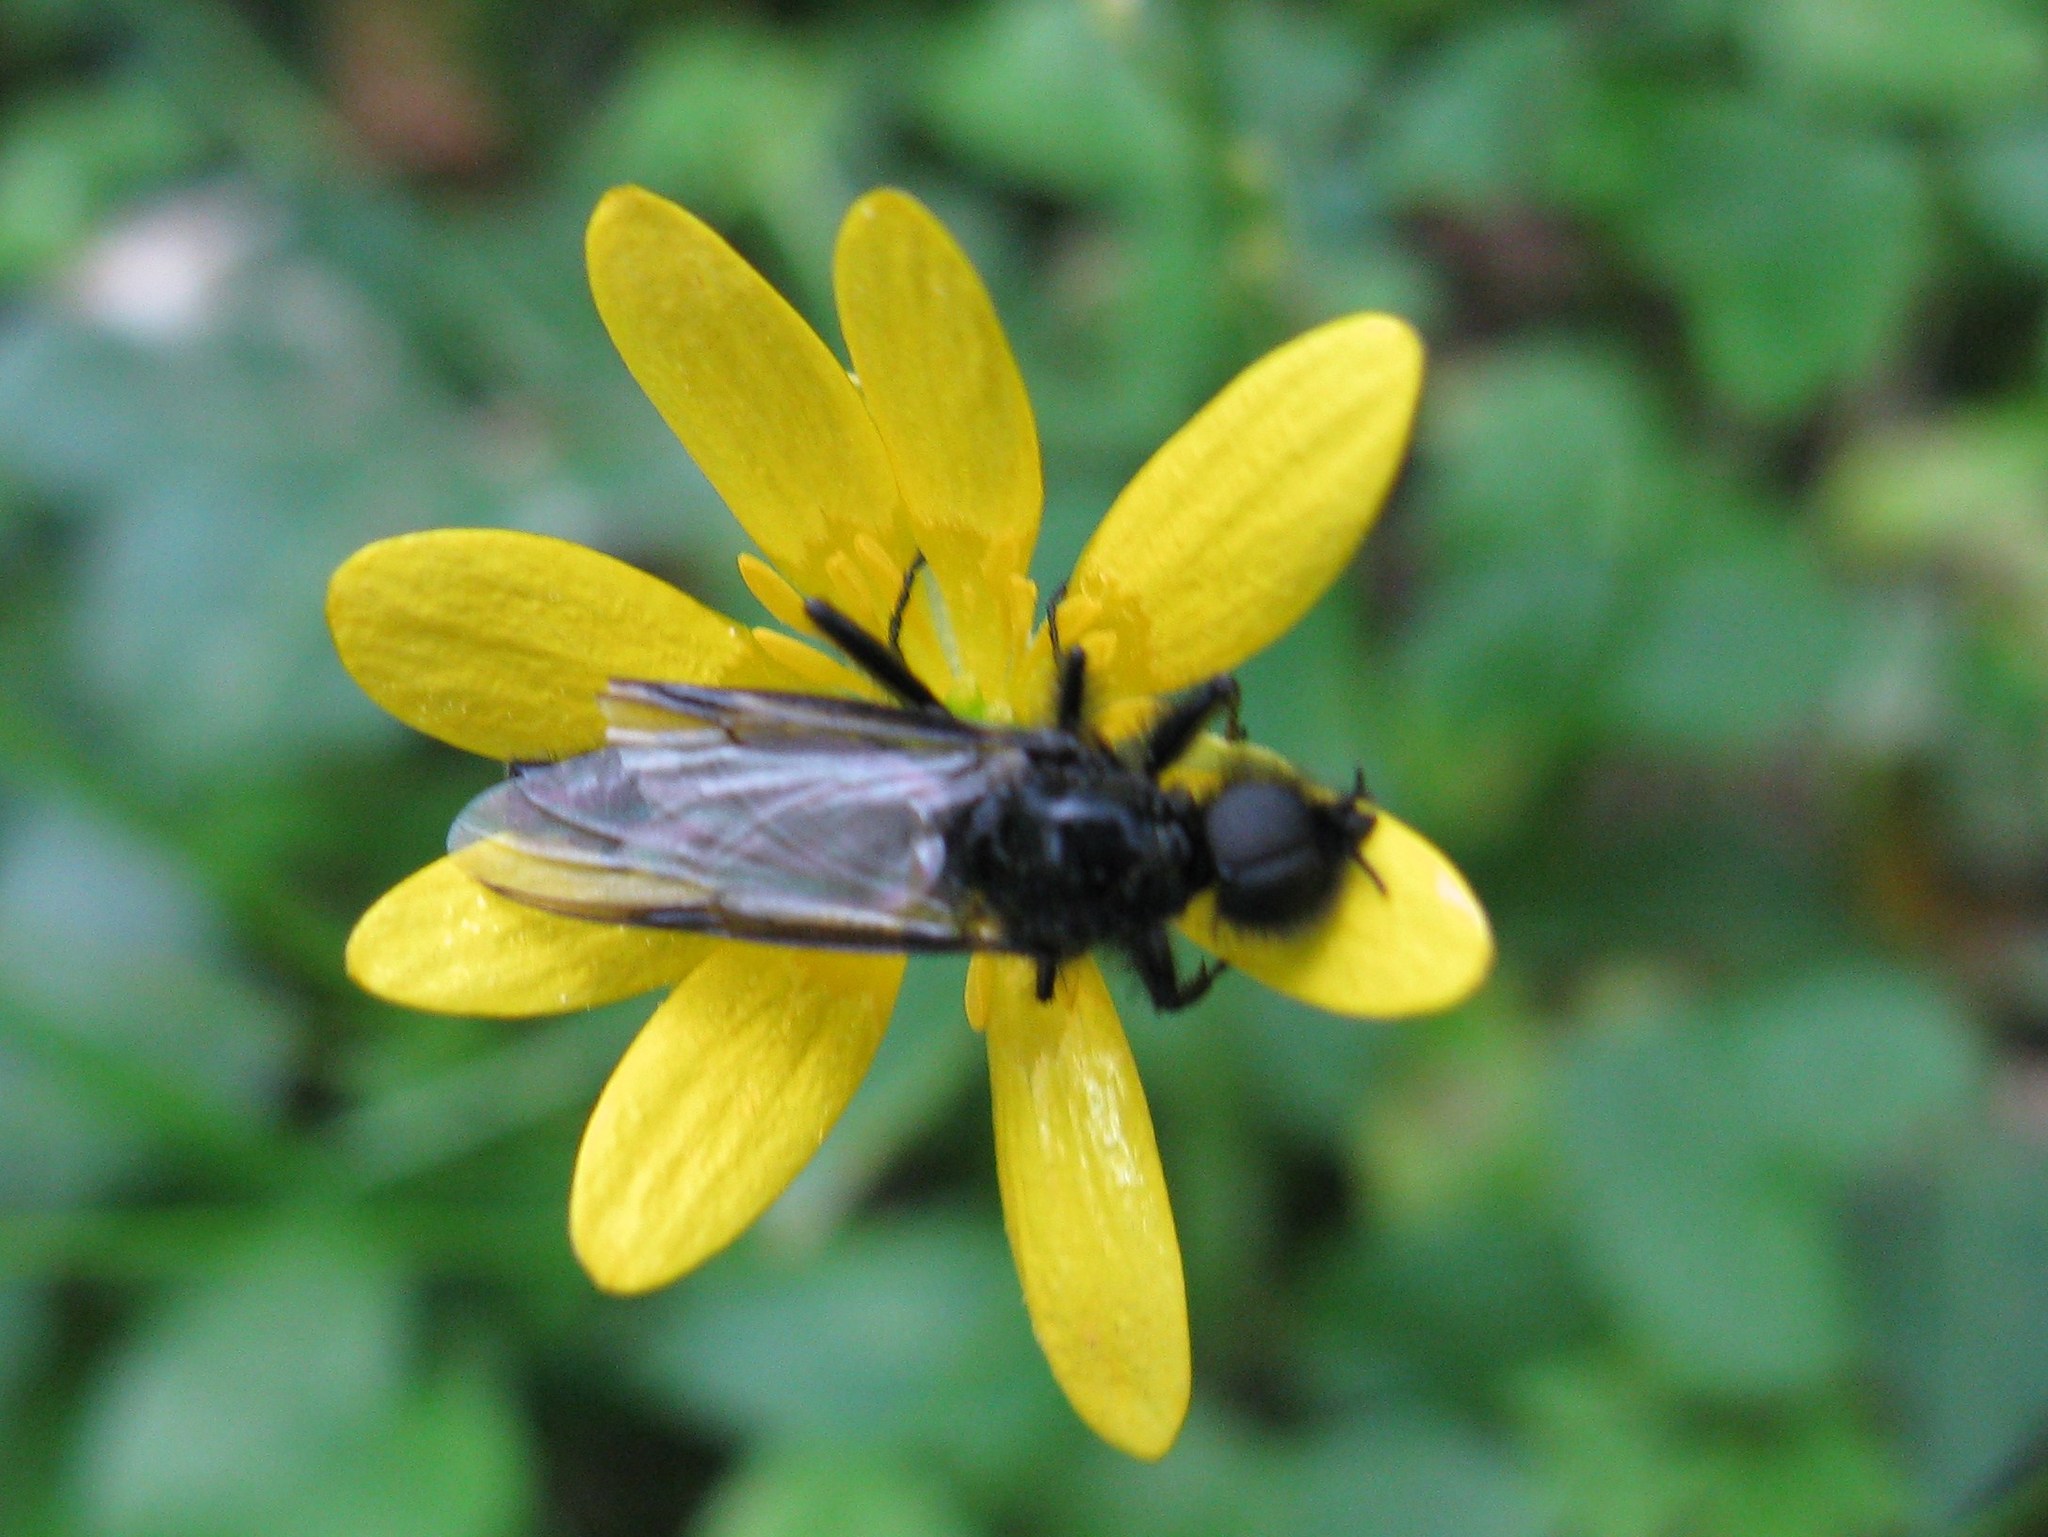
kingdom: Plantae
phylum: Tracheophyta
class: Magnoliopsida
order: Ranunculales
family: Ranunculaceae
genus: Ficaria
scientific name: Ficaria verna
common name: Lesser celandine
